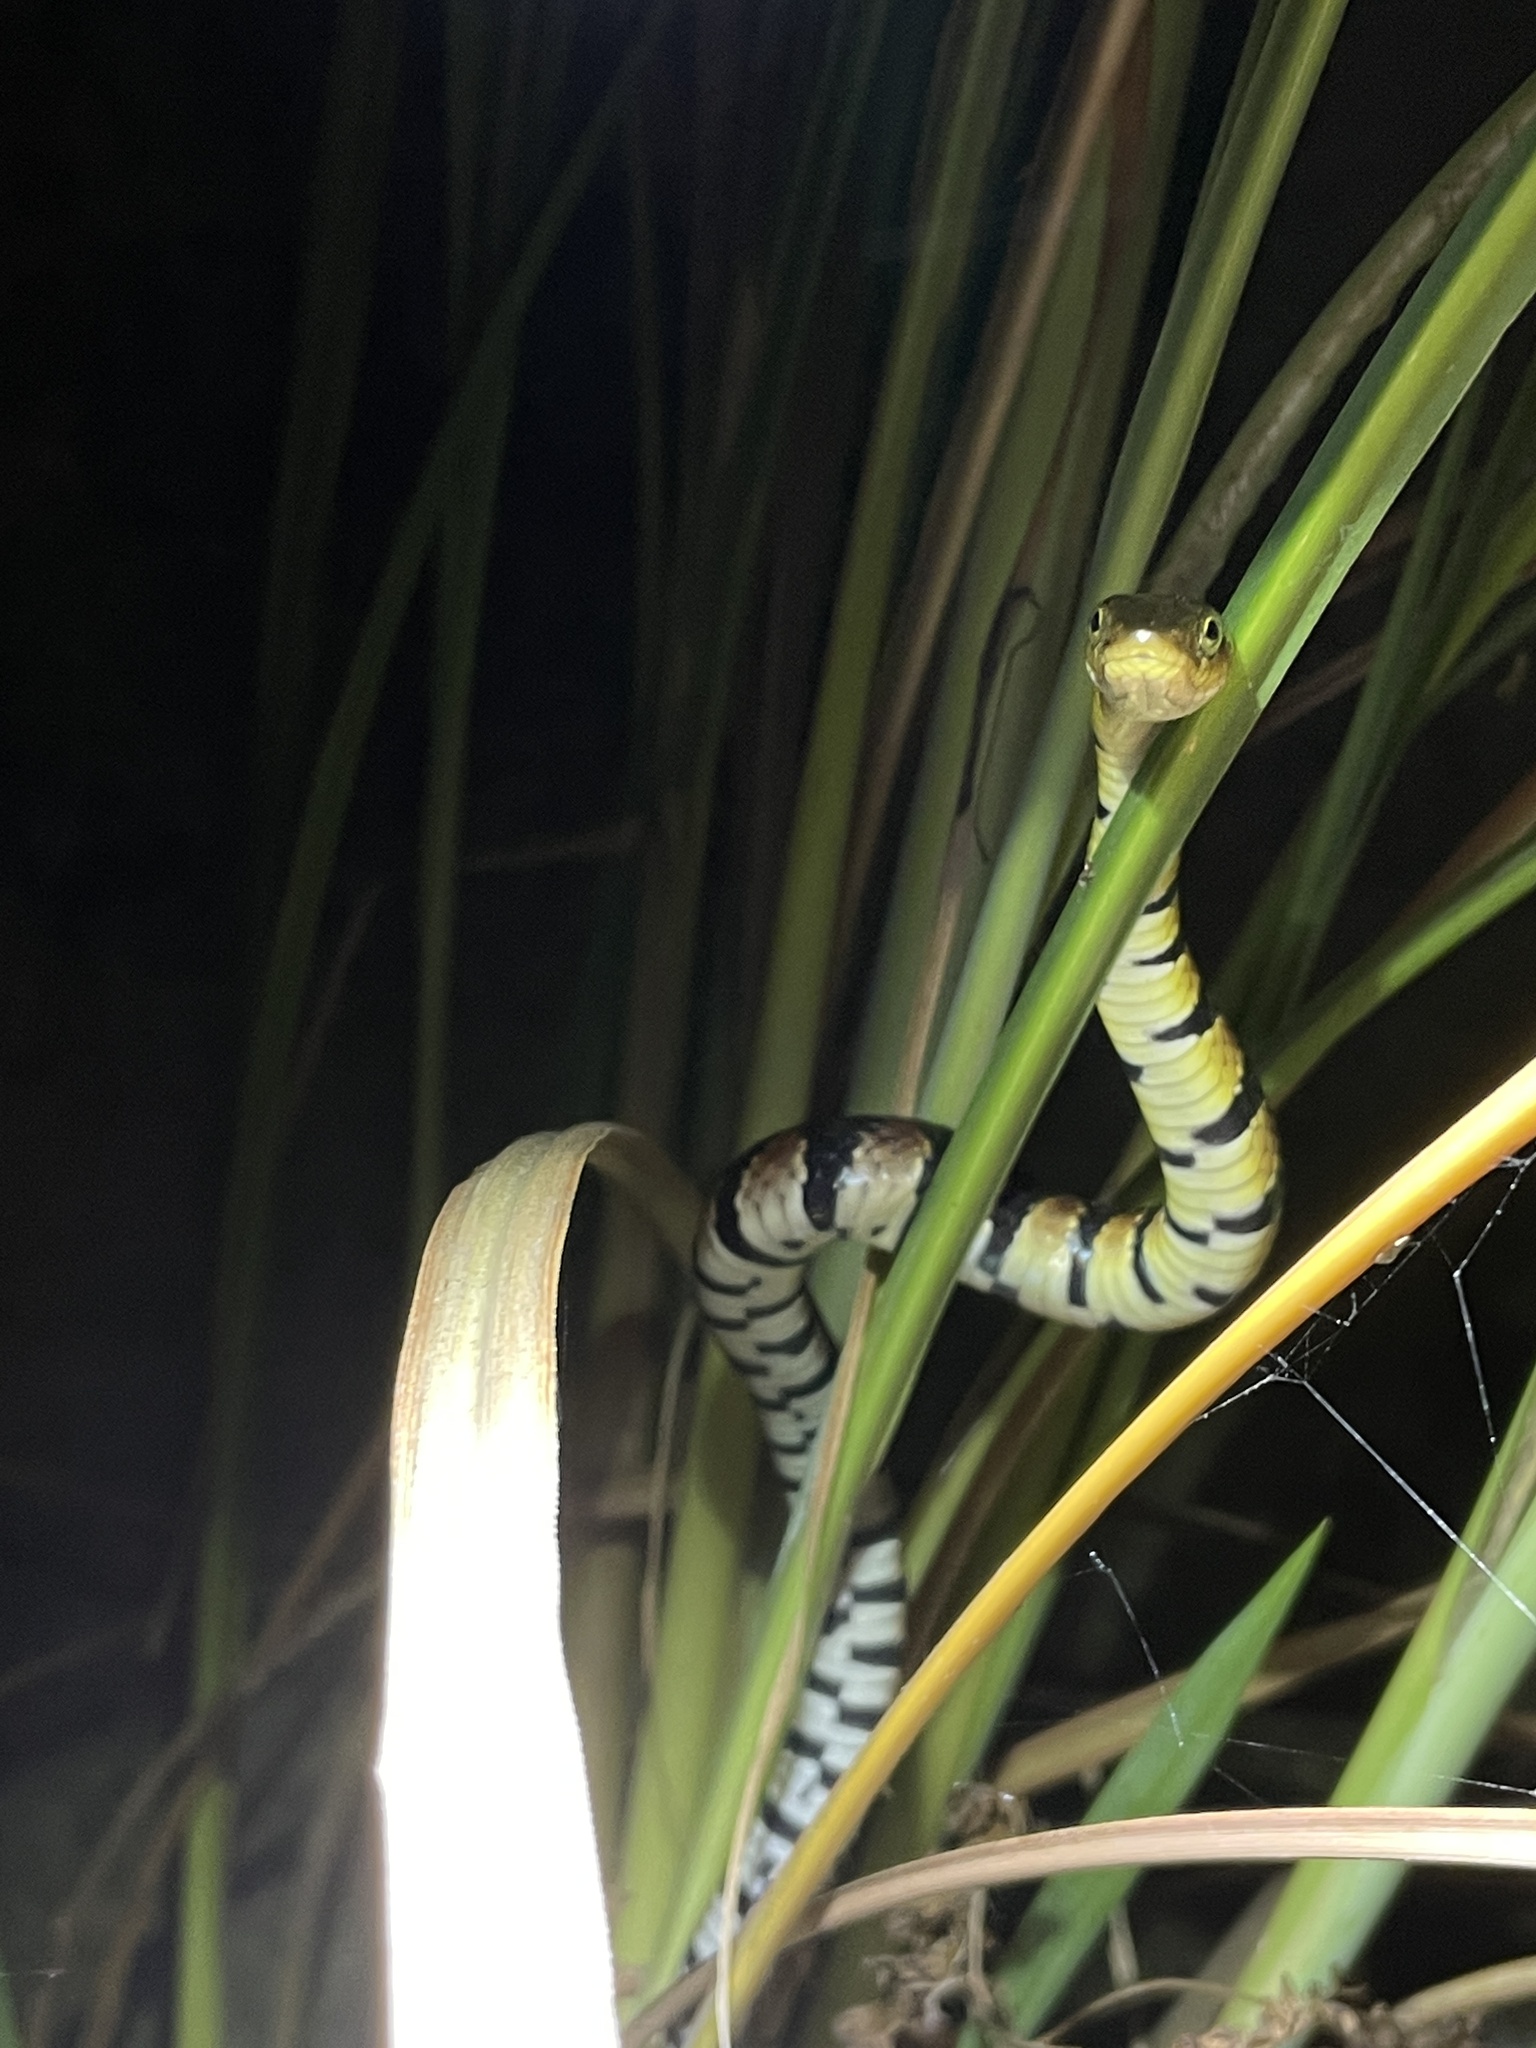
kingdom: Animalia
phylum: Chordata
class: Squamata
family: Colubridae
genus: Trimerodytes
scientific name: Trimerodytes percarinatus
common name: Eastern water snake
